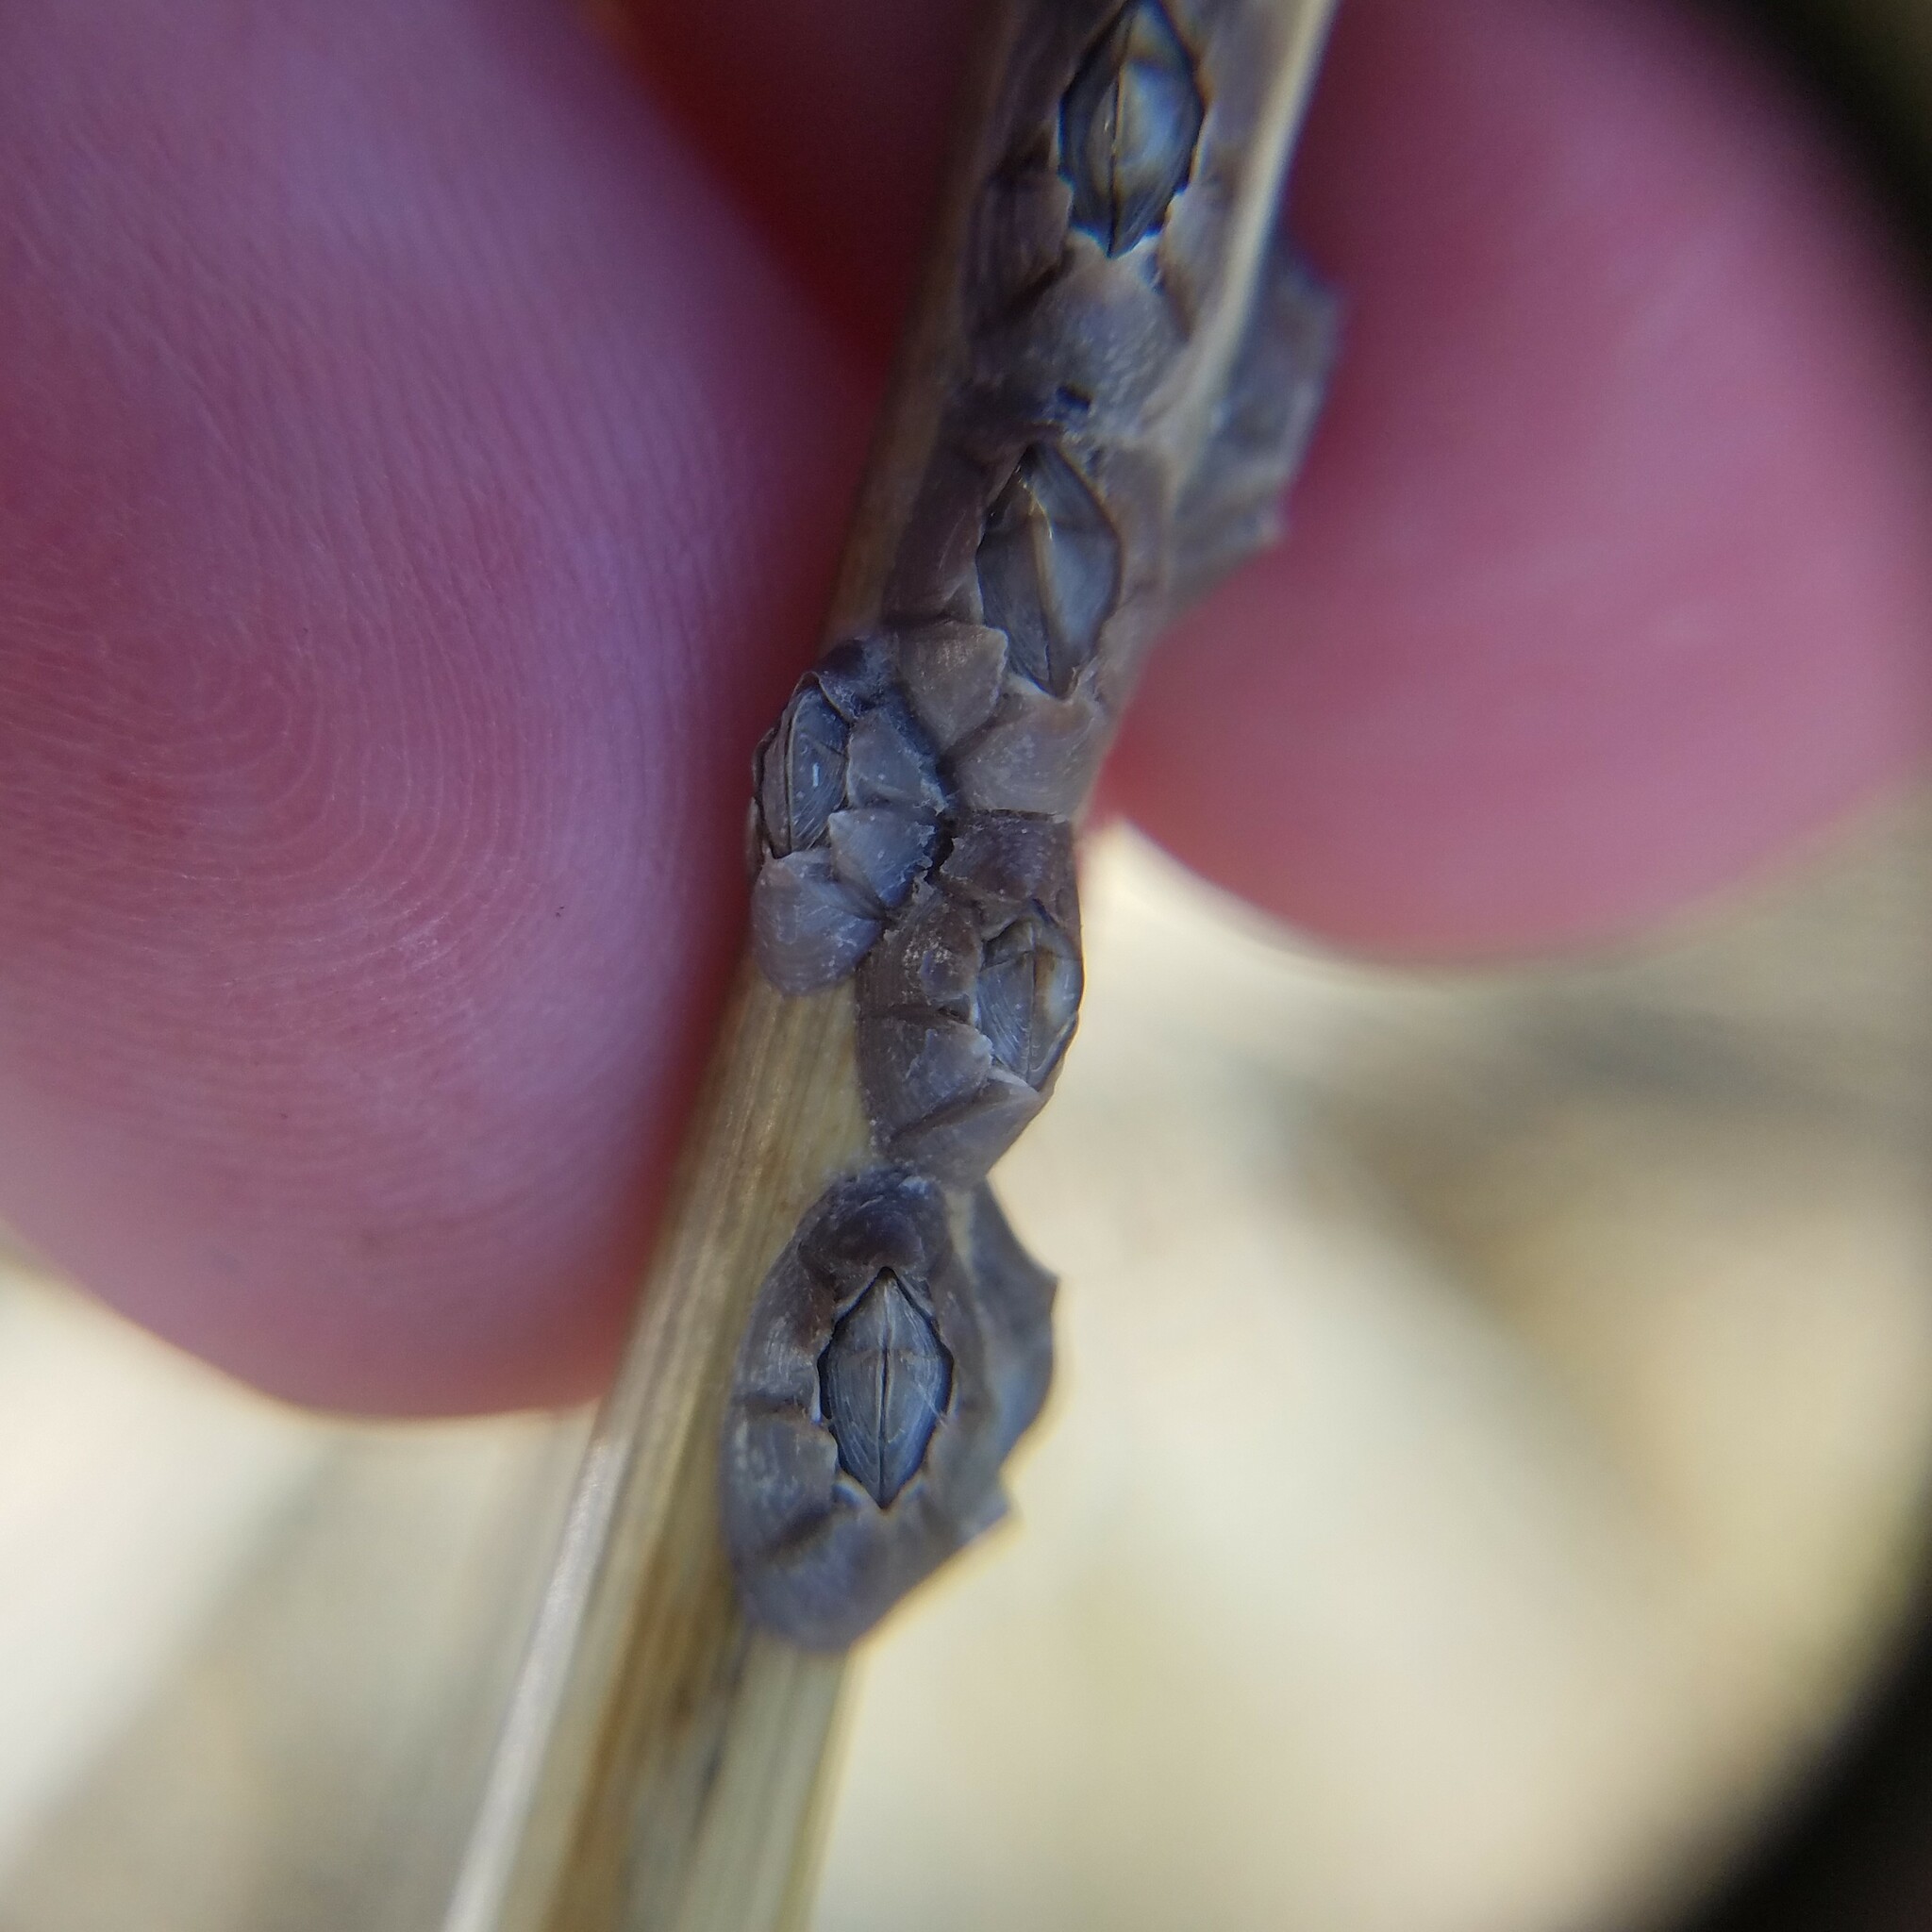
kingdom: Animalia
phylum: Arthropoda
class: Maxillopoda
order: Sessilia
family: Chthamalidae
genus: Chthamalus
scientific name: Chthamalus fragilis
